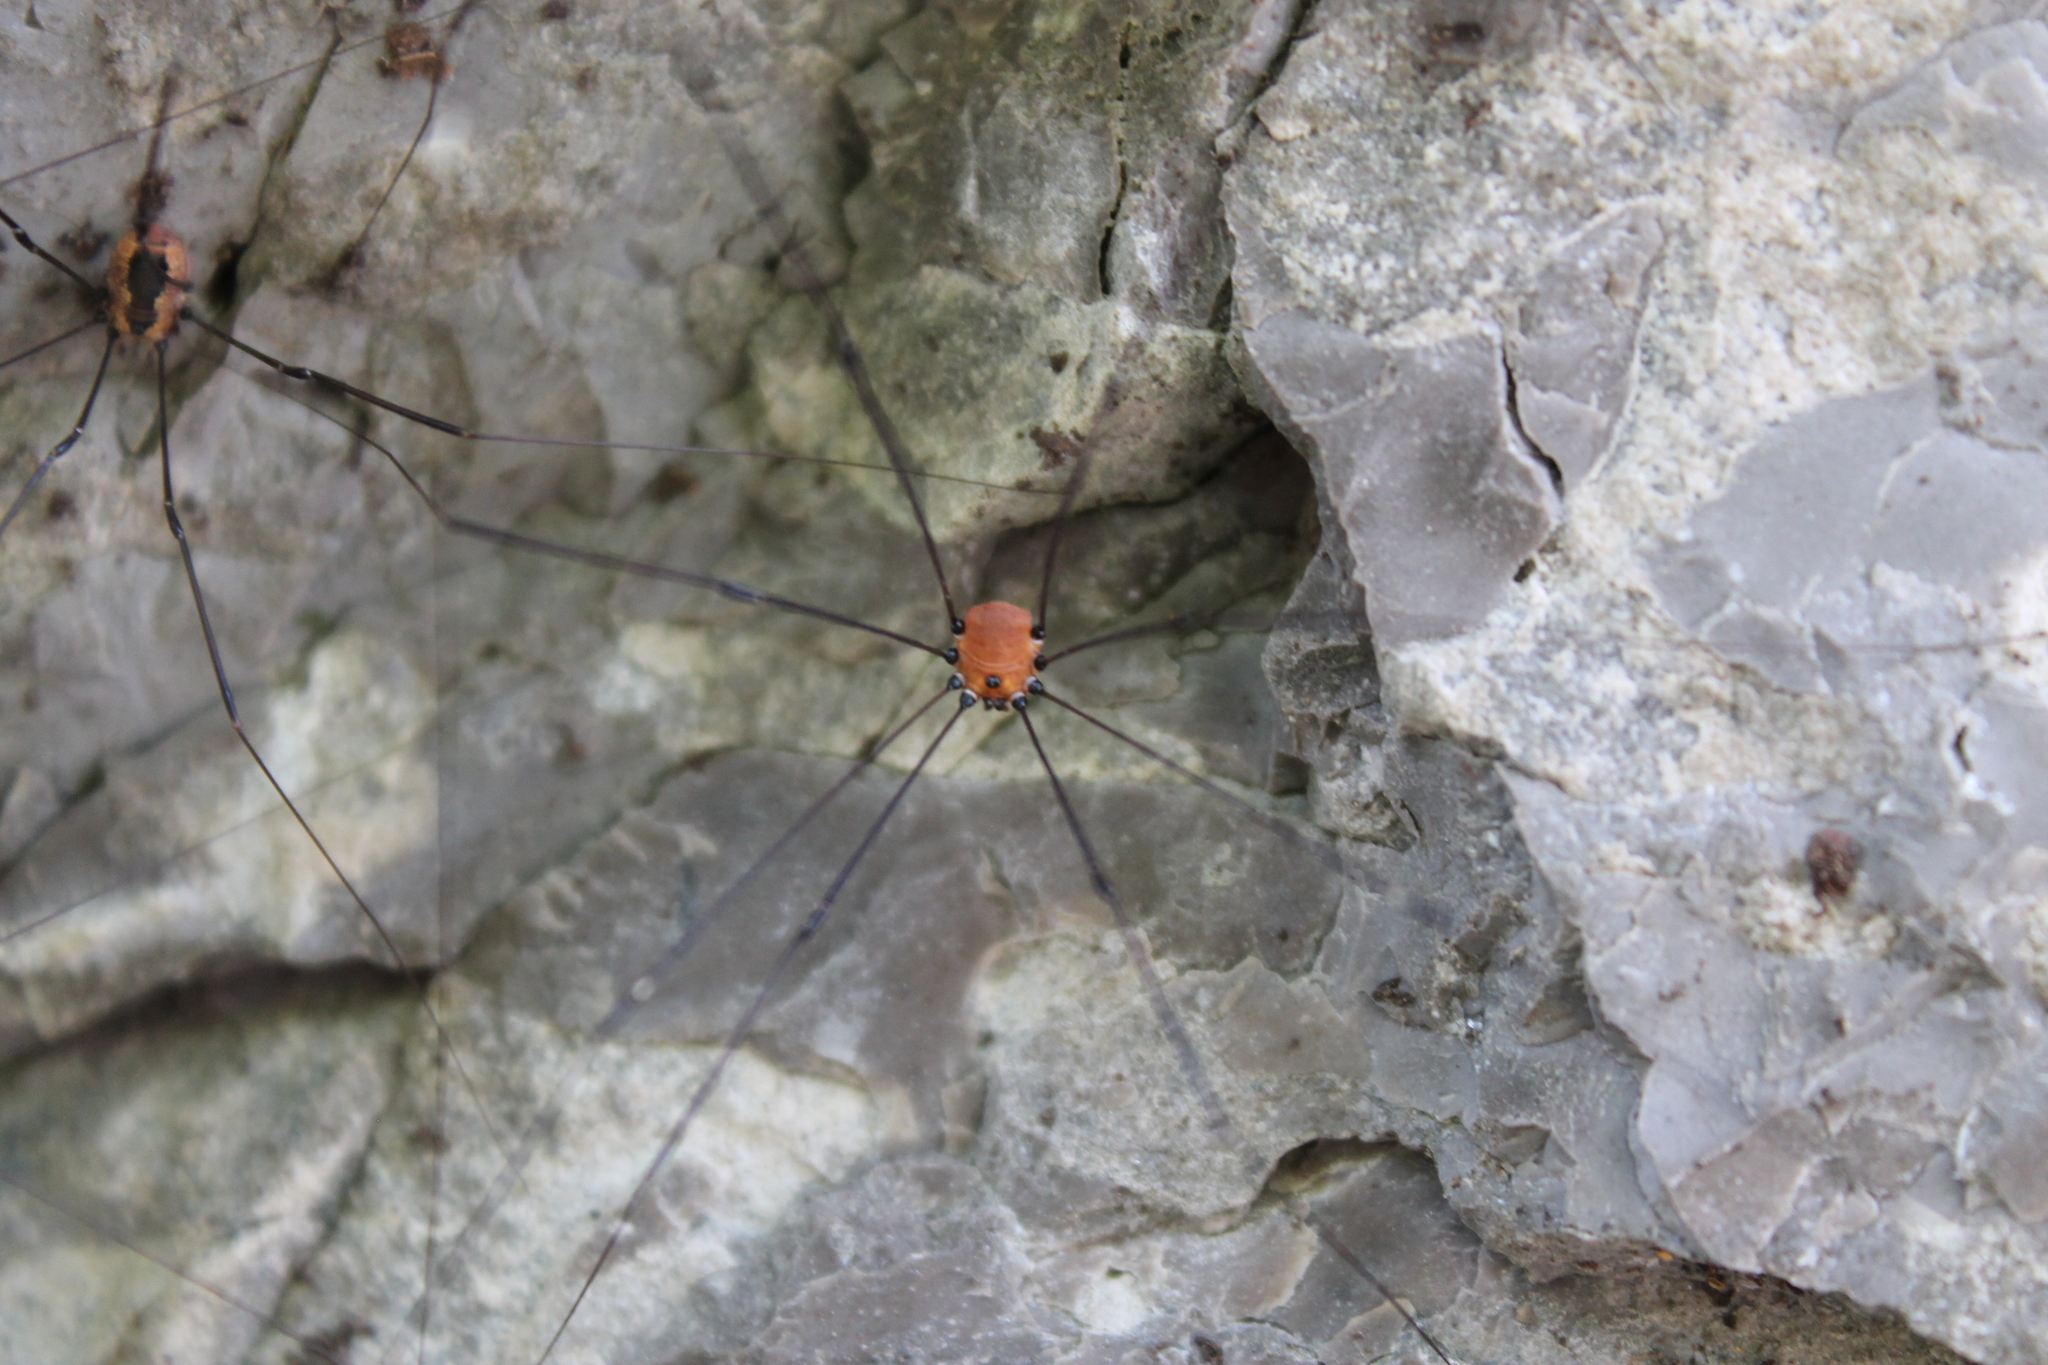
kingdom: Animalia
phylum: Arthropoda
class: Arachnida
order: Opiliones
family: Sclerosomatidae
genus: Leiobunum
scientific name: Leiobunum aldrichi
